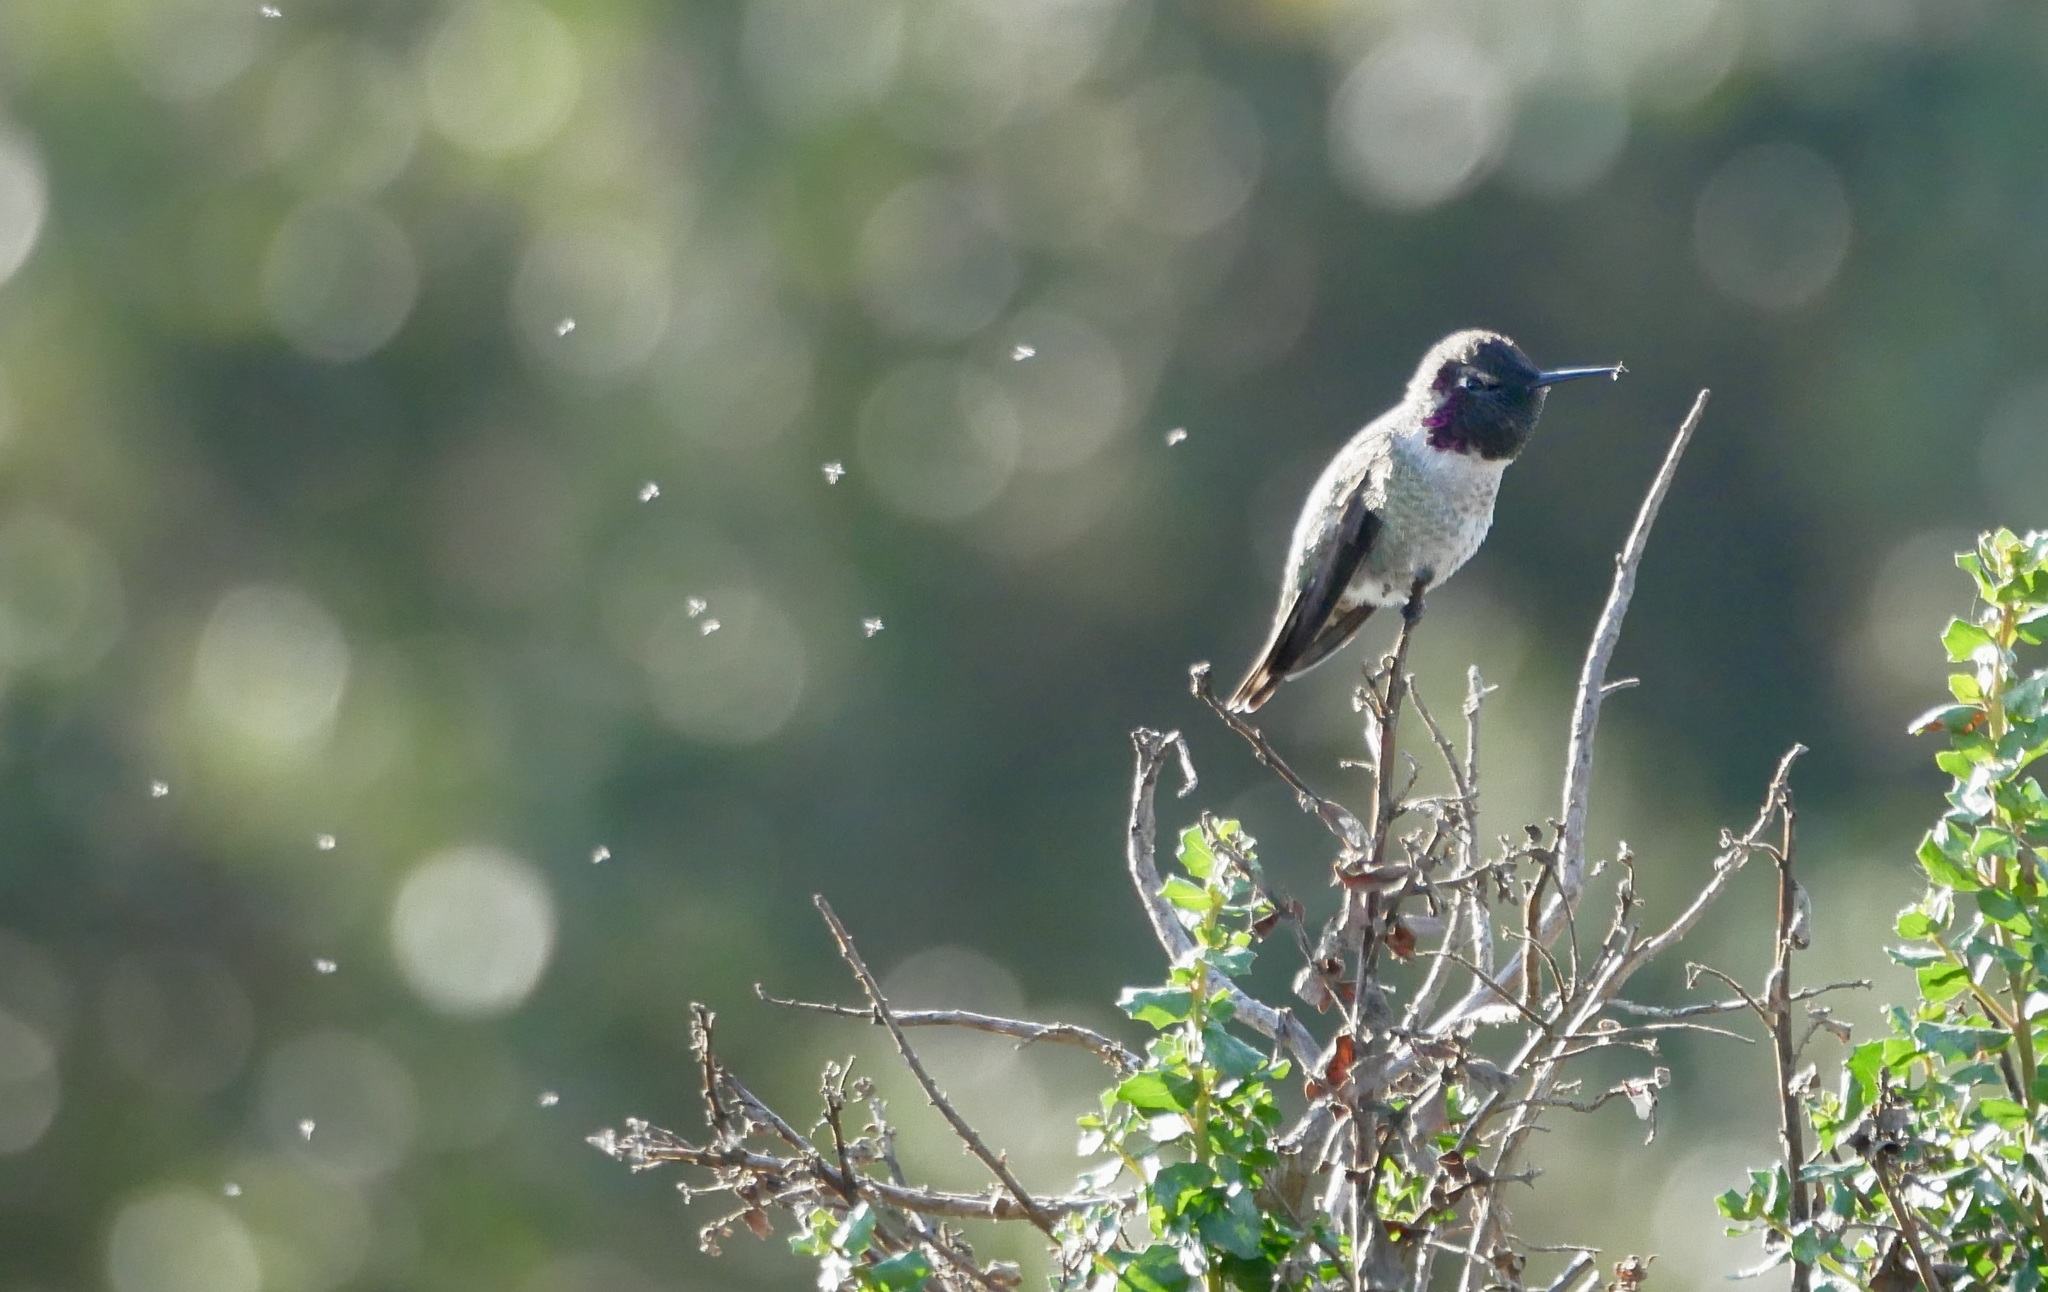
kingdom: Animalia
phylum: Chordata
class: Aves
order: Apodiformes
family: Trochilidae
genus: Calypte
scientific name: Calypte anna
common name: Anna's hummingbird
